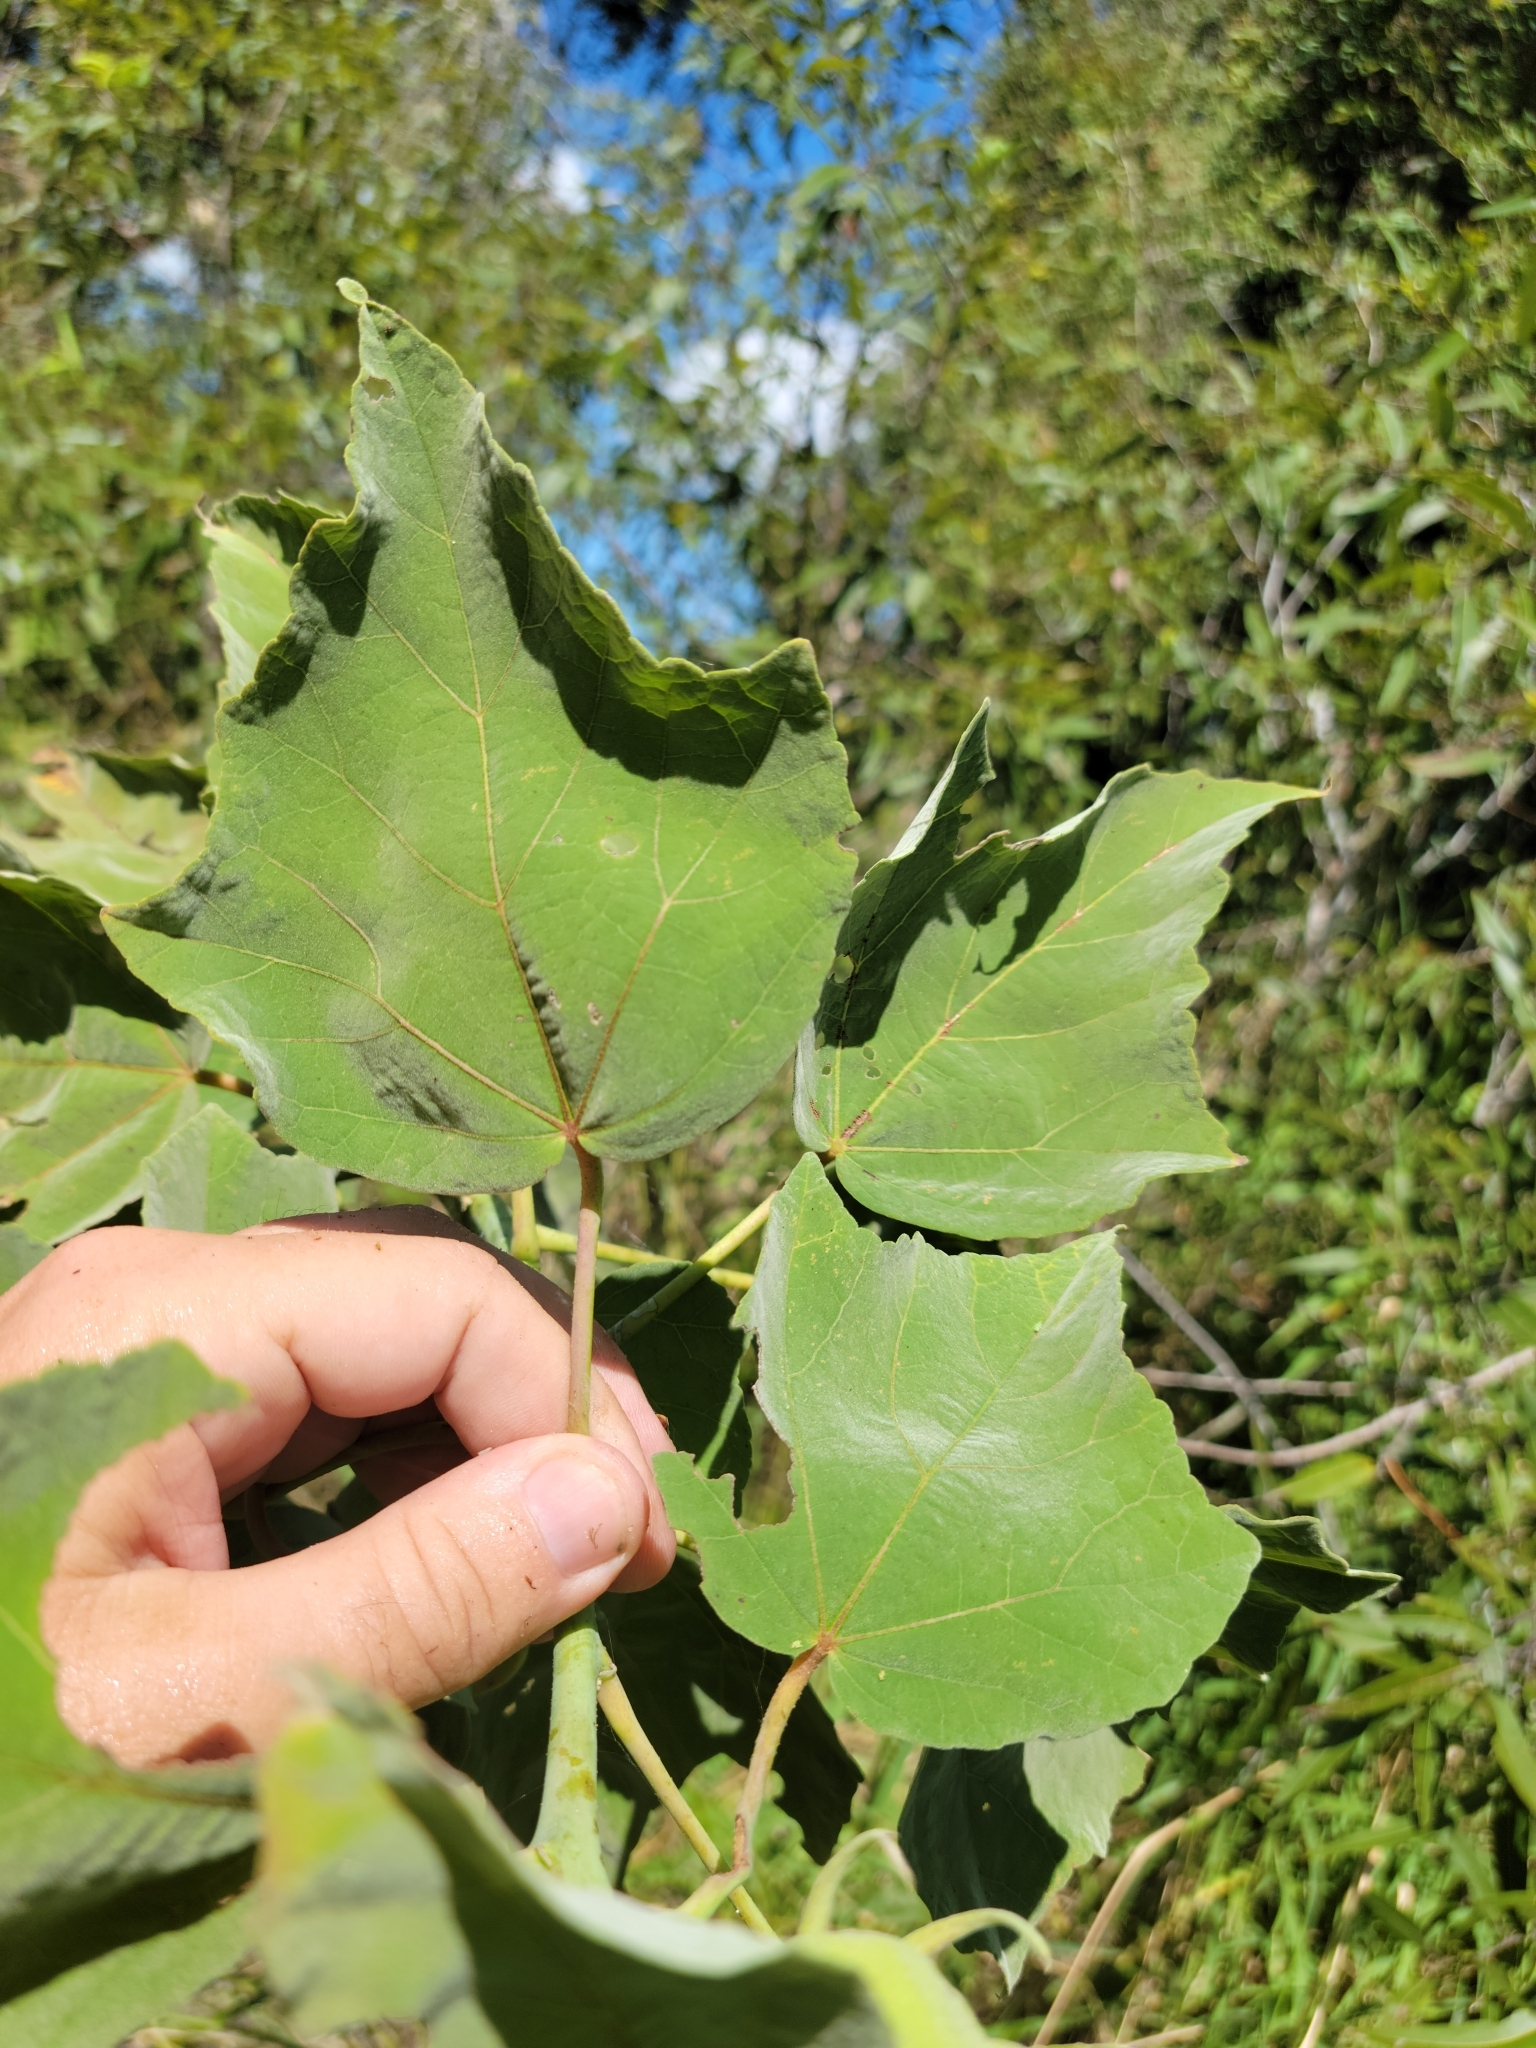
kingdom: Plantae
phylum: Tracheophyta
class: Magnoliopsida
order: Malvales
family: Malvaceae
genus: Hibiscus
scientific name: Hibiscus grandiflorus
